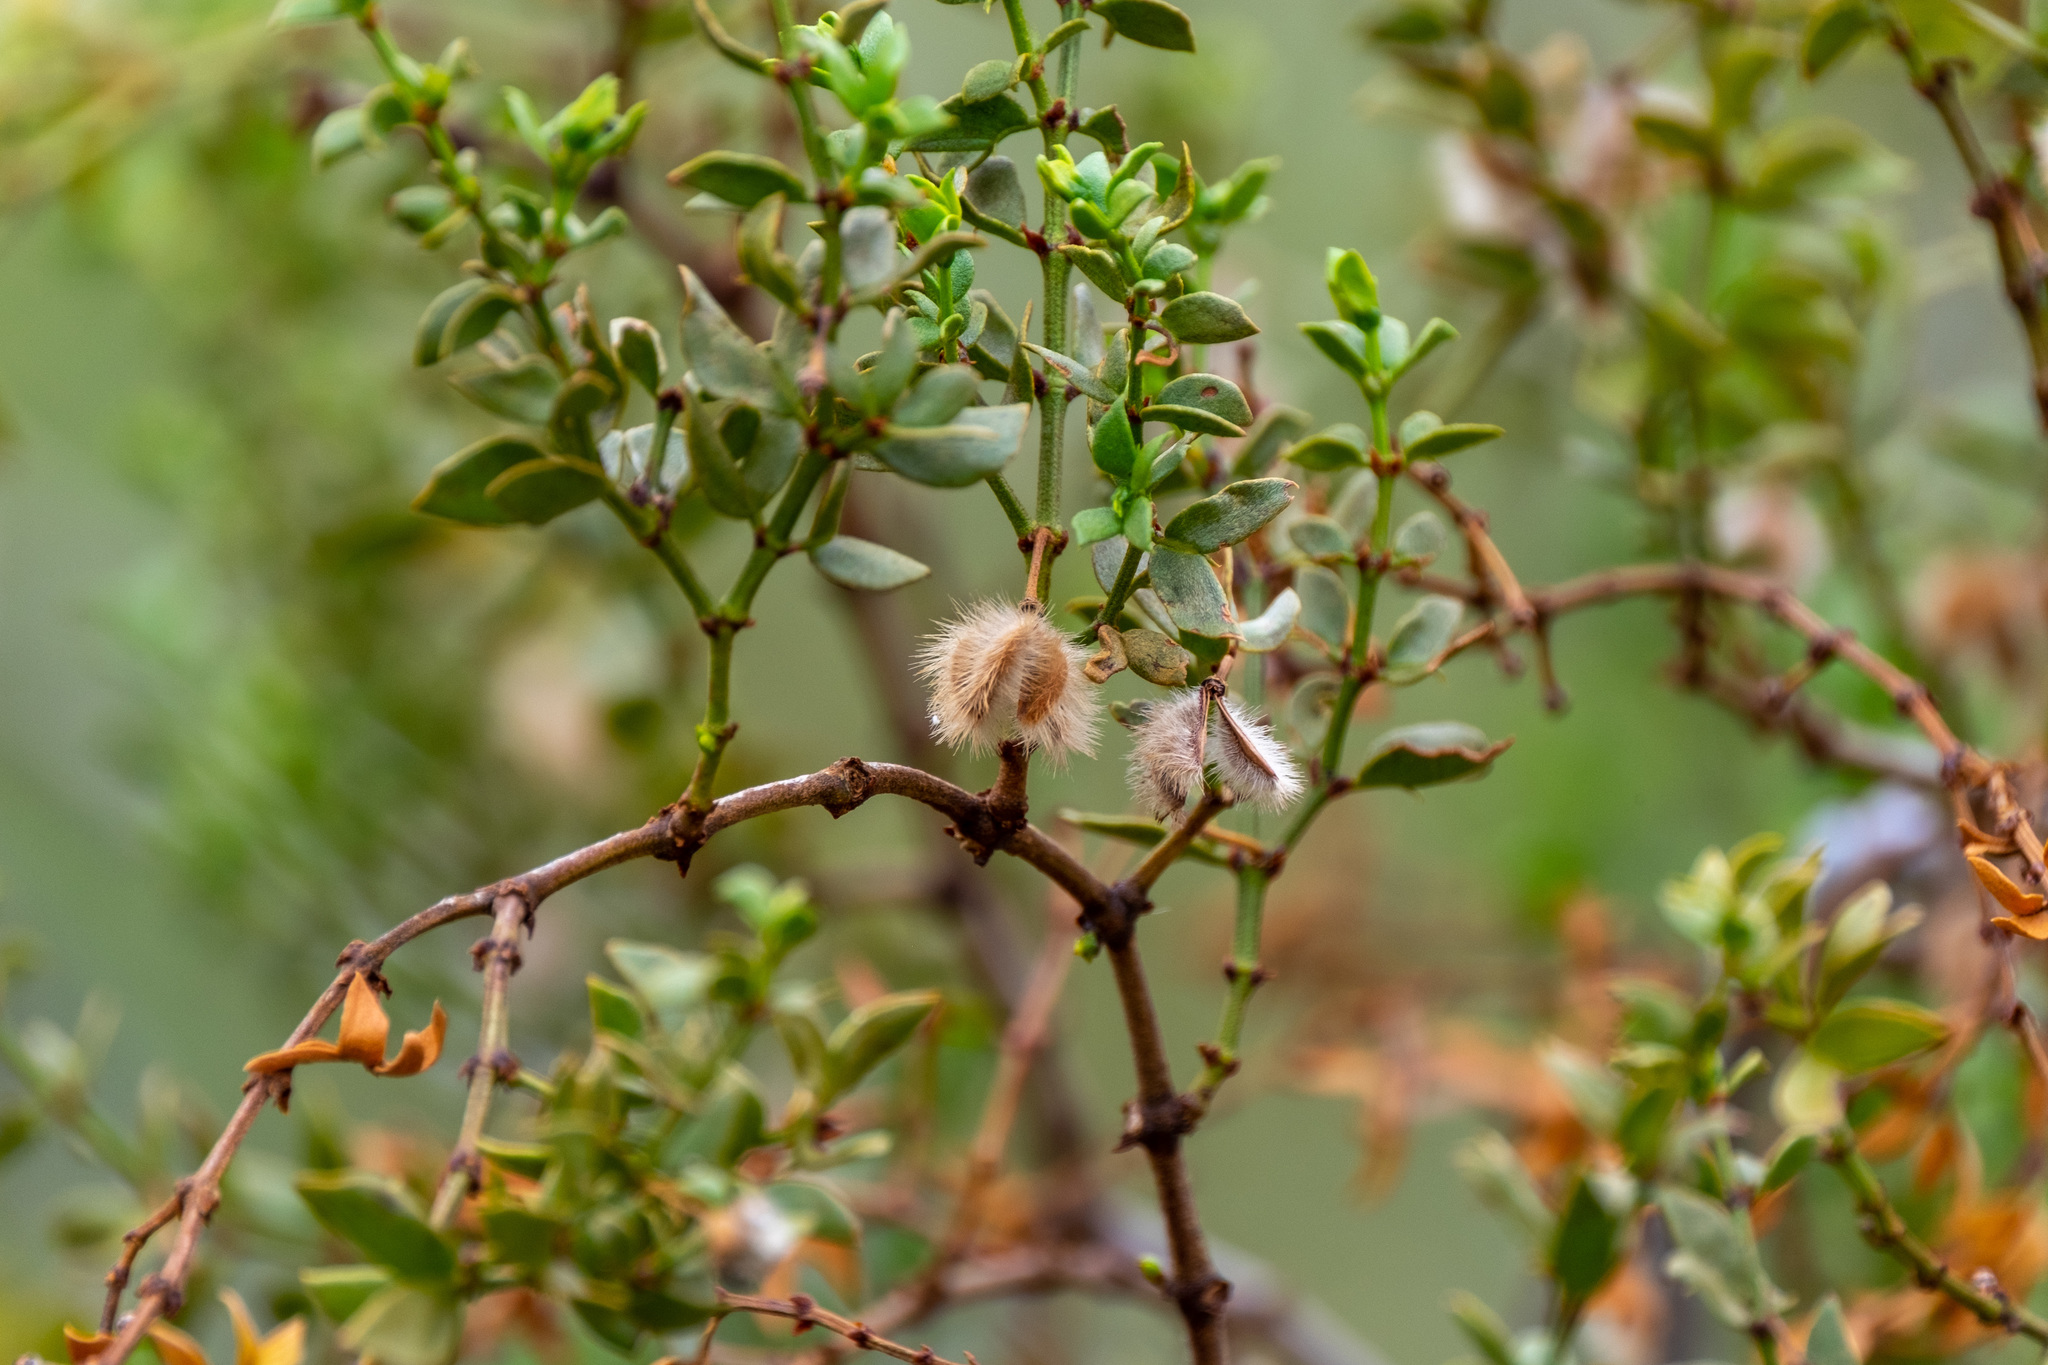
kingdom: Plantae
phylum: Tracheophyta
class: Magnoliopsida
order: Zygophyllales
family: Zygophyllaceae
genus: Larrea
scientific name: Larrea tridentata
